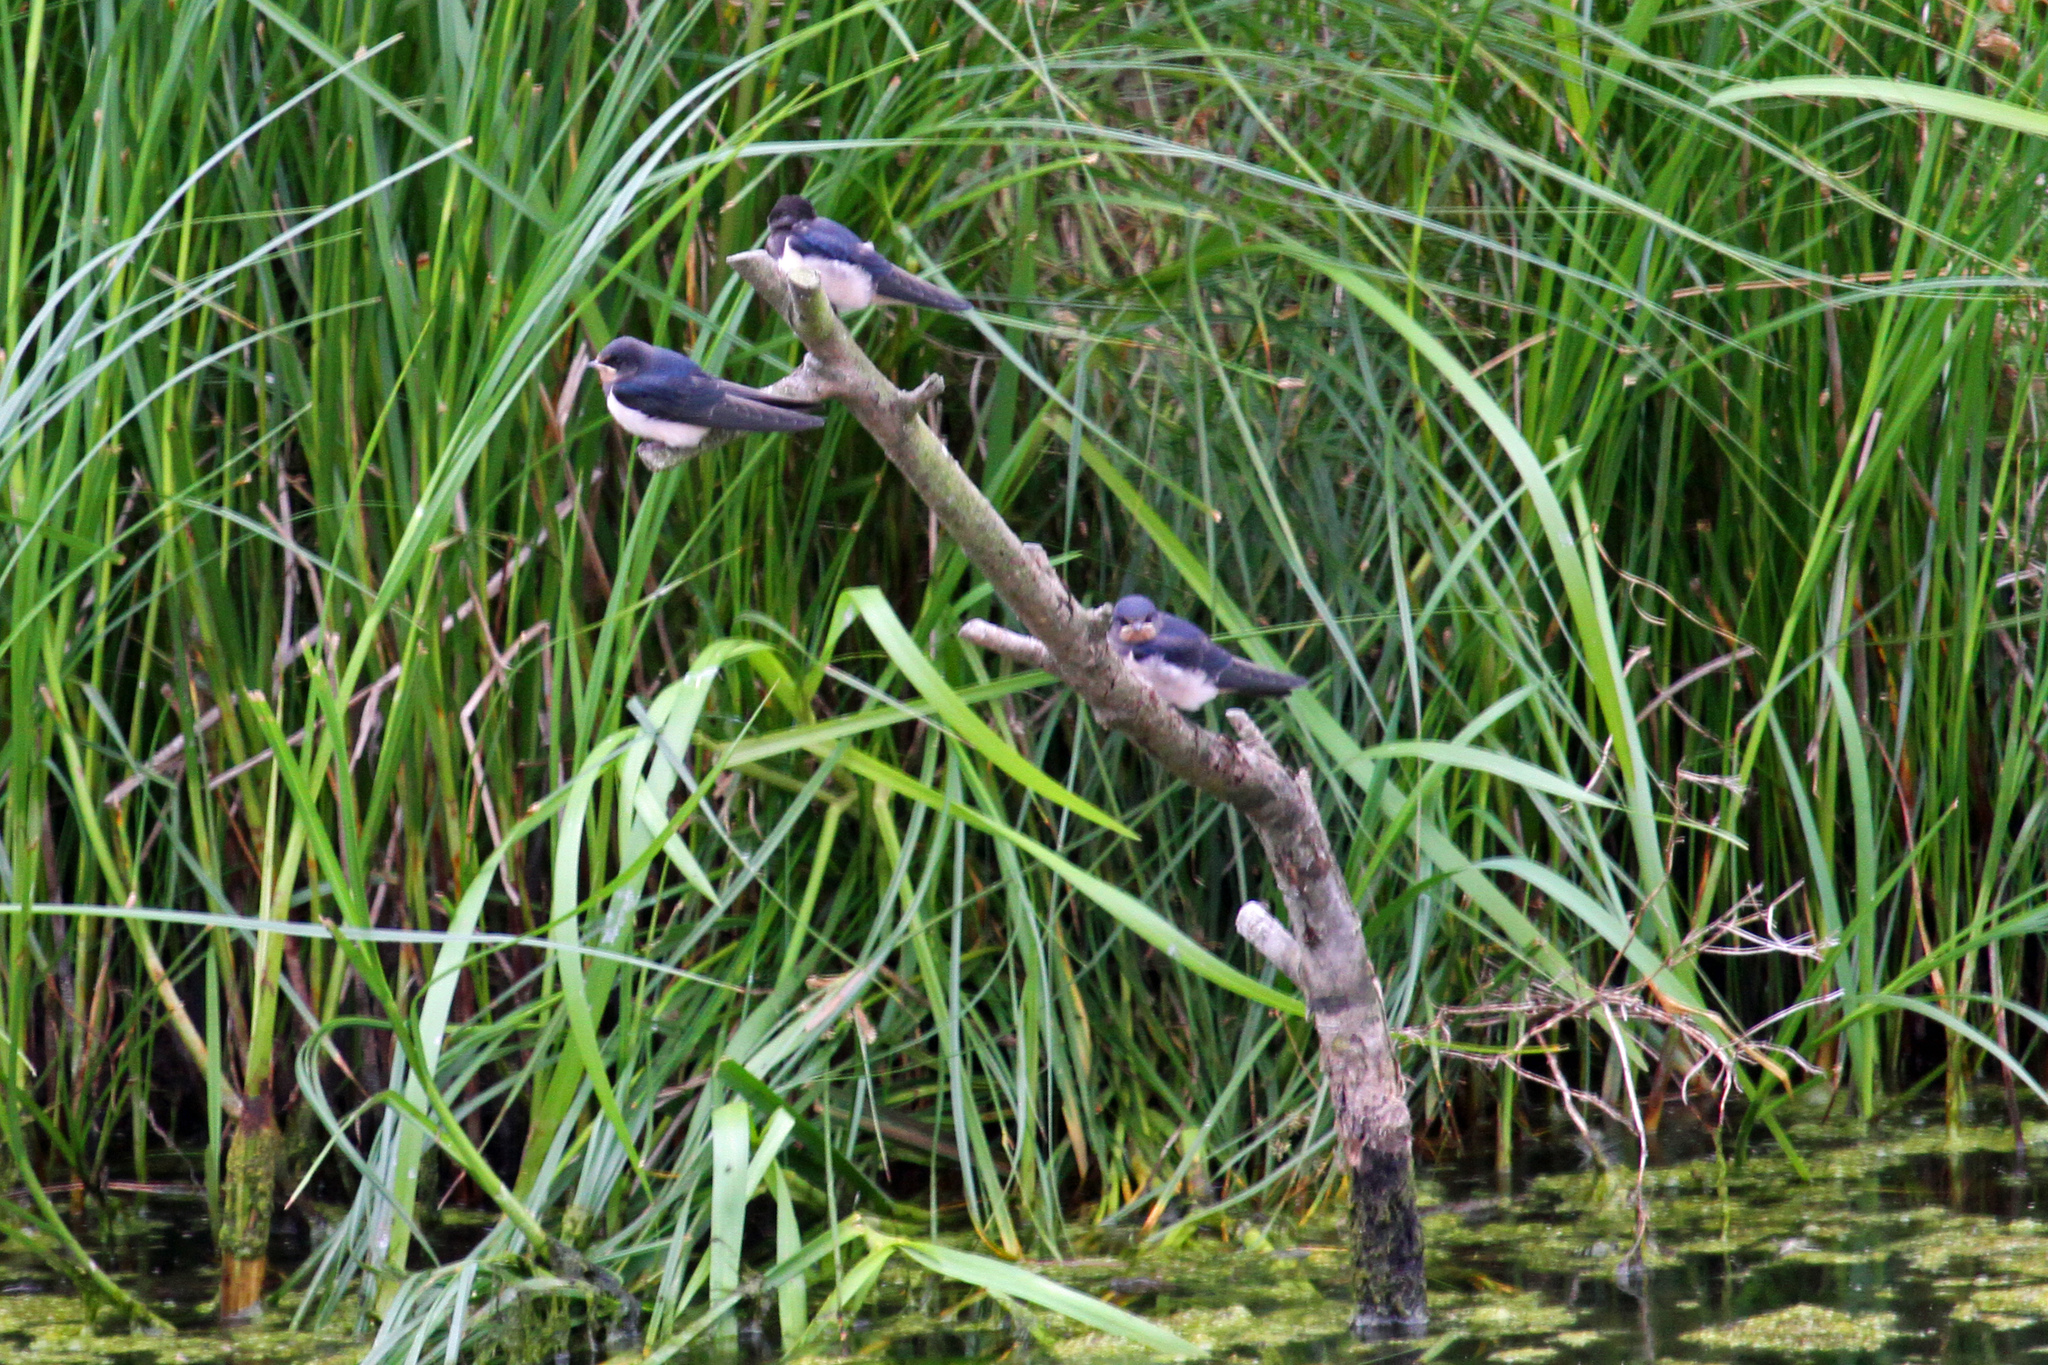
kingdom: Animalia
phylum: Chordata
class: Aves
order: Passeriformes
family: Hirundinidae
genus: Hirundo
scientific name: Hirundo rustica
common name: Barn swallow
